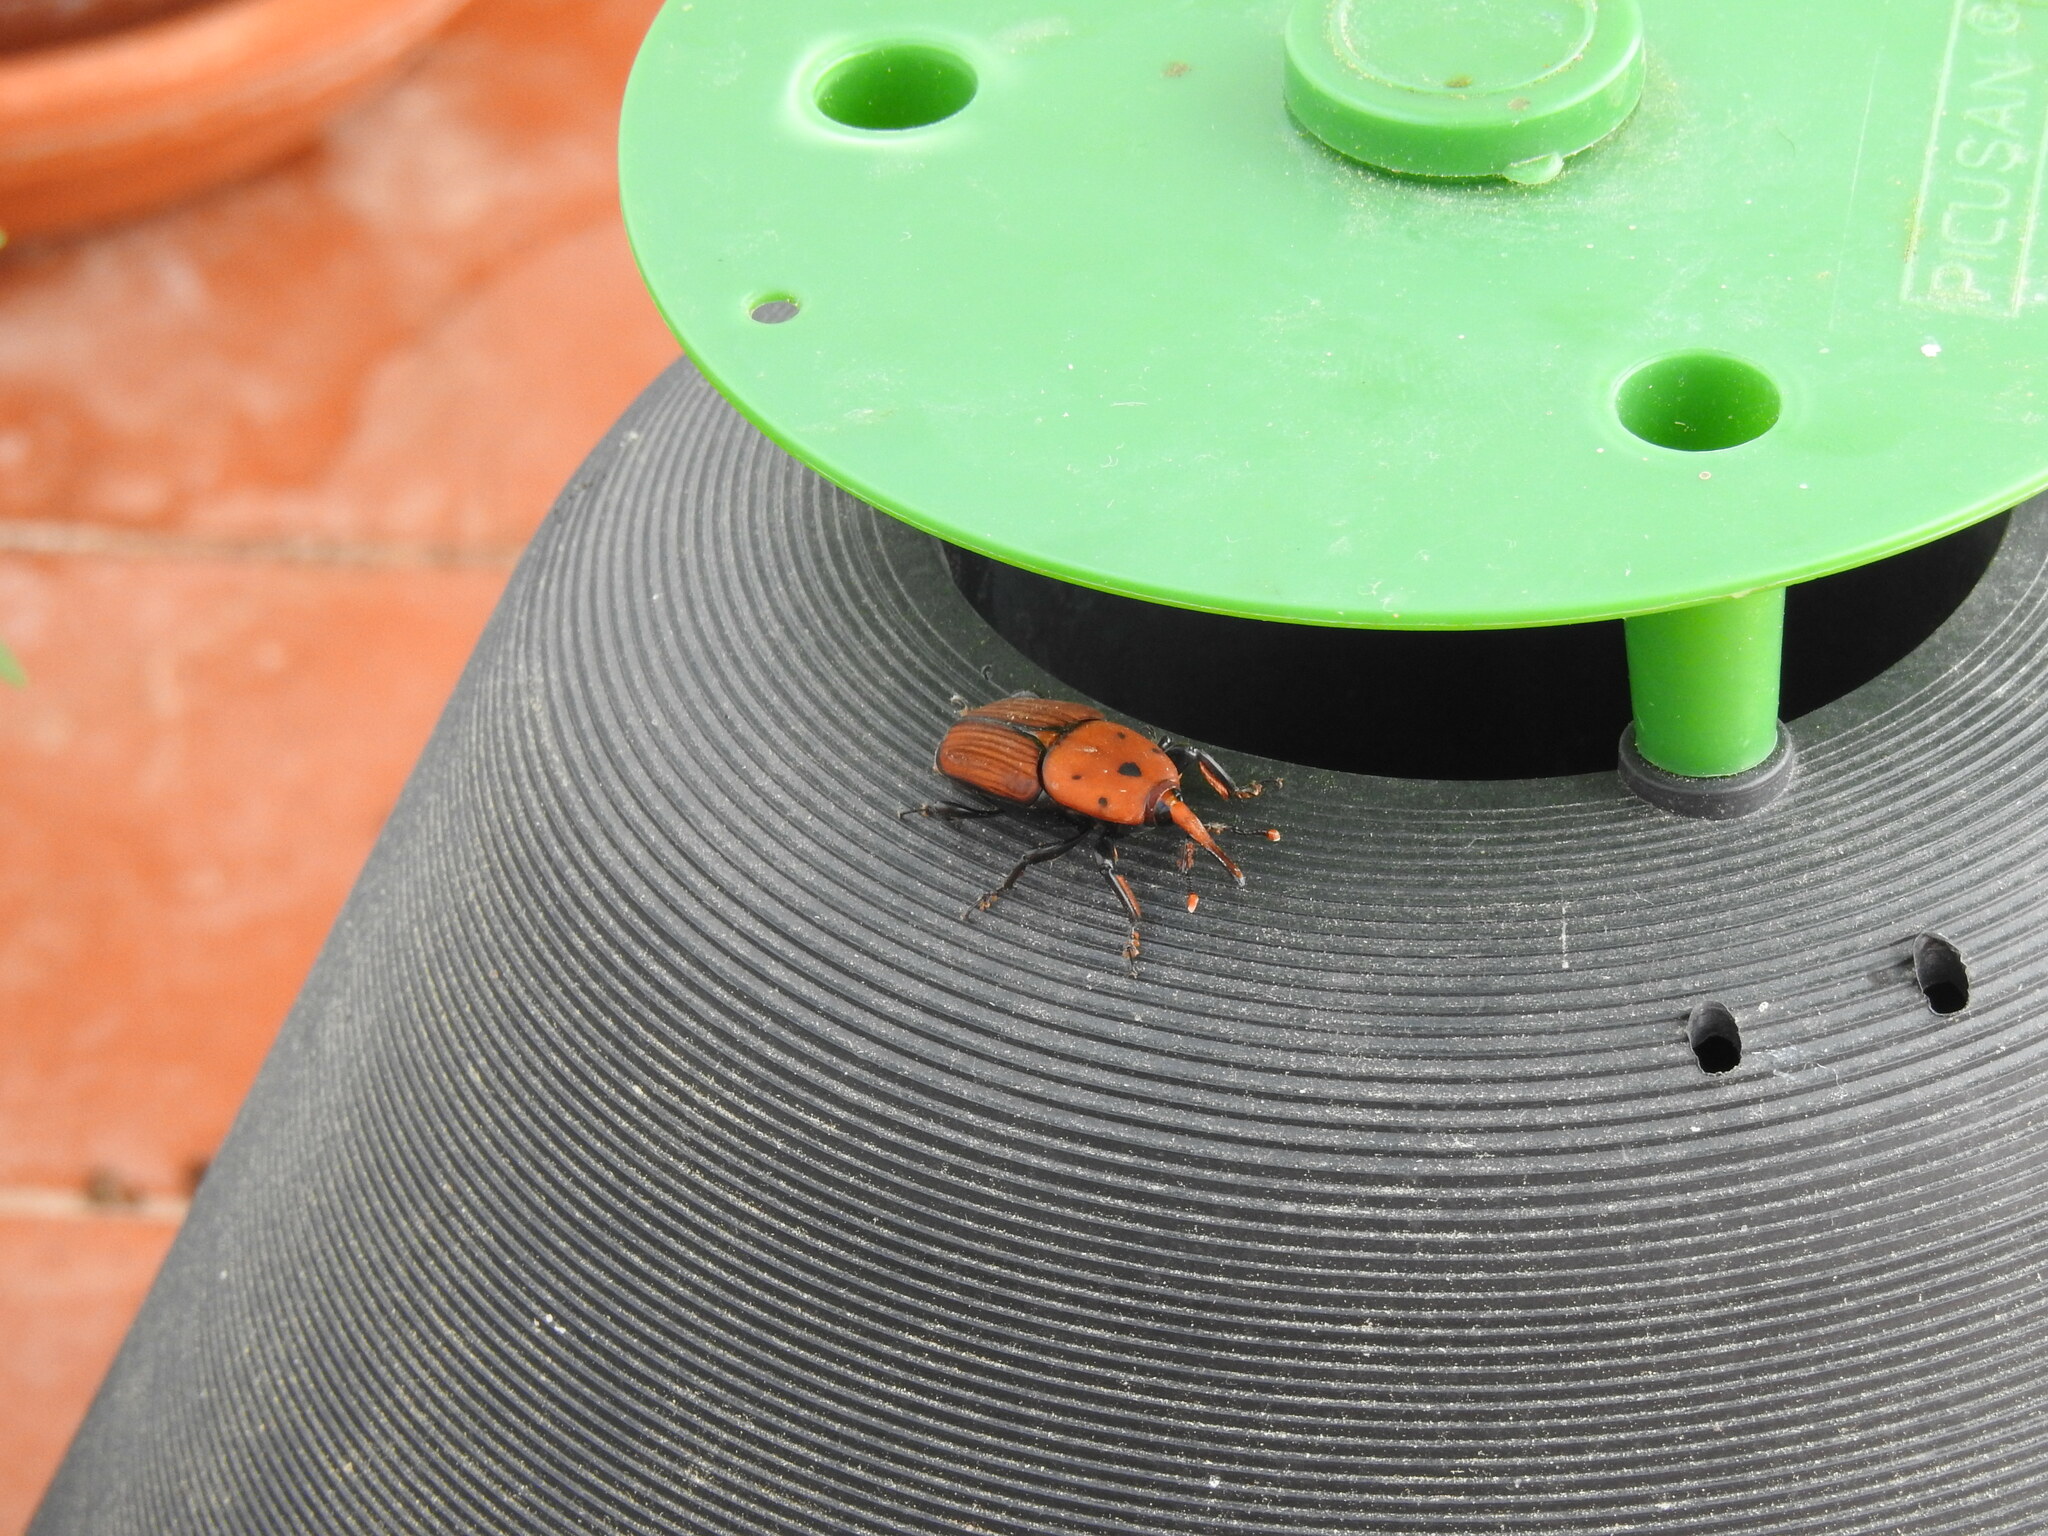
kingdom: Animalia
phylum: Arthropoda
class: Insecta
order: Coleoptera
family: Dryophthoridae
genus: Rhynchophorus
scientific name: Rhynchophorus ferrugineus
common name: Red palm weevil
